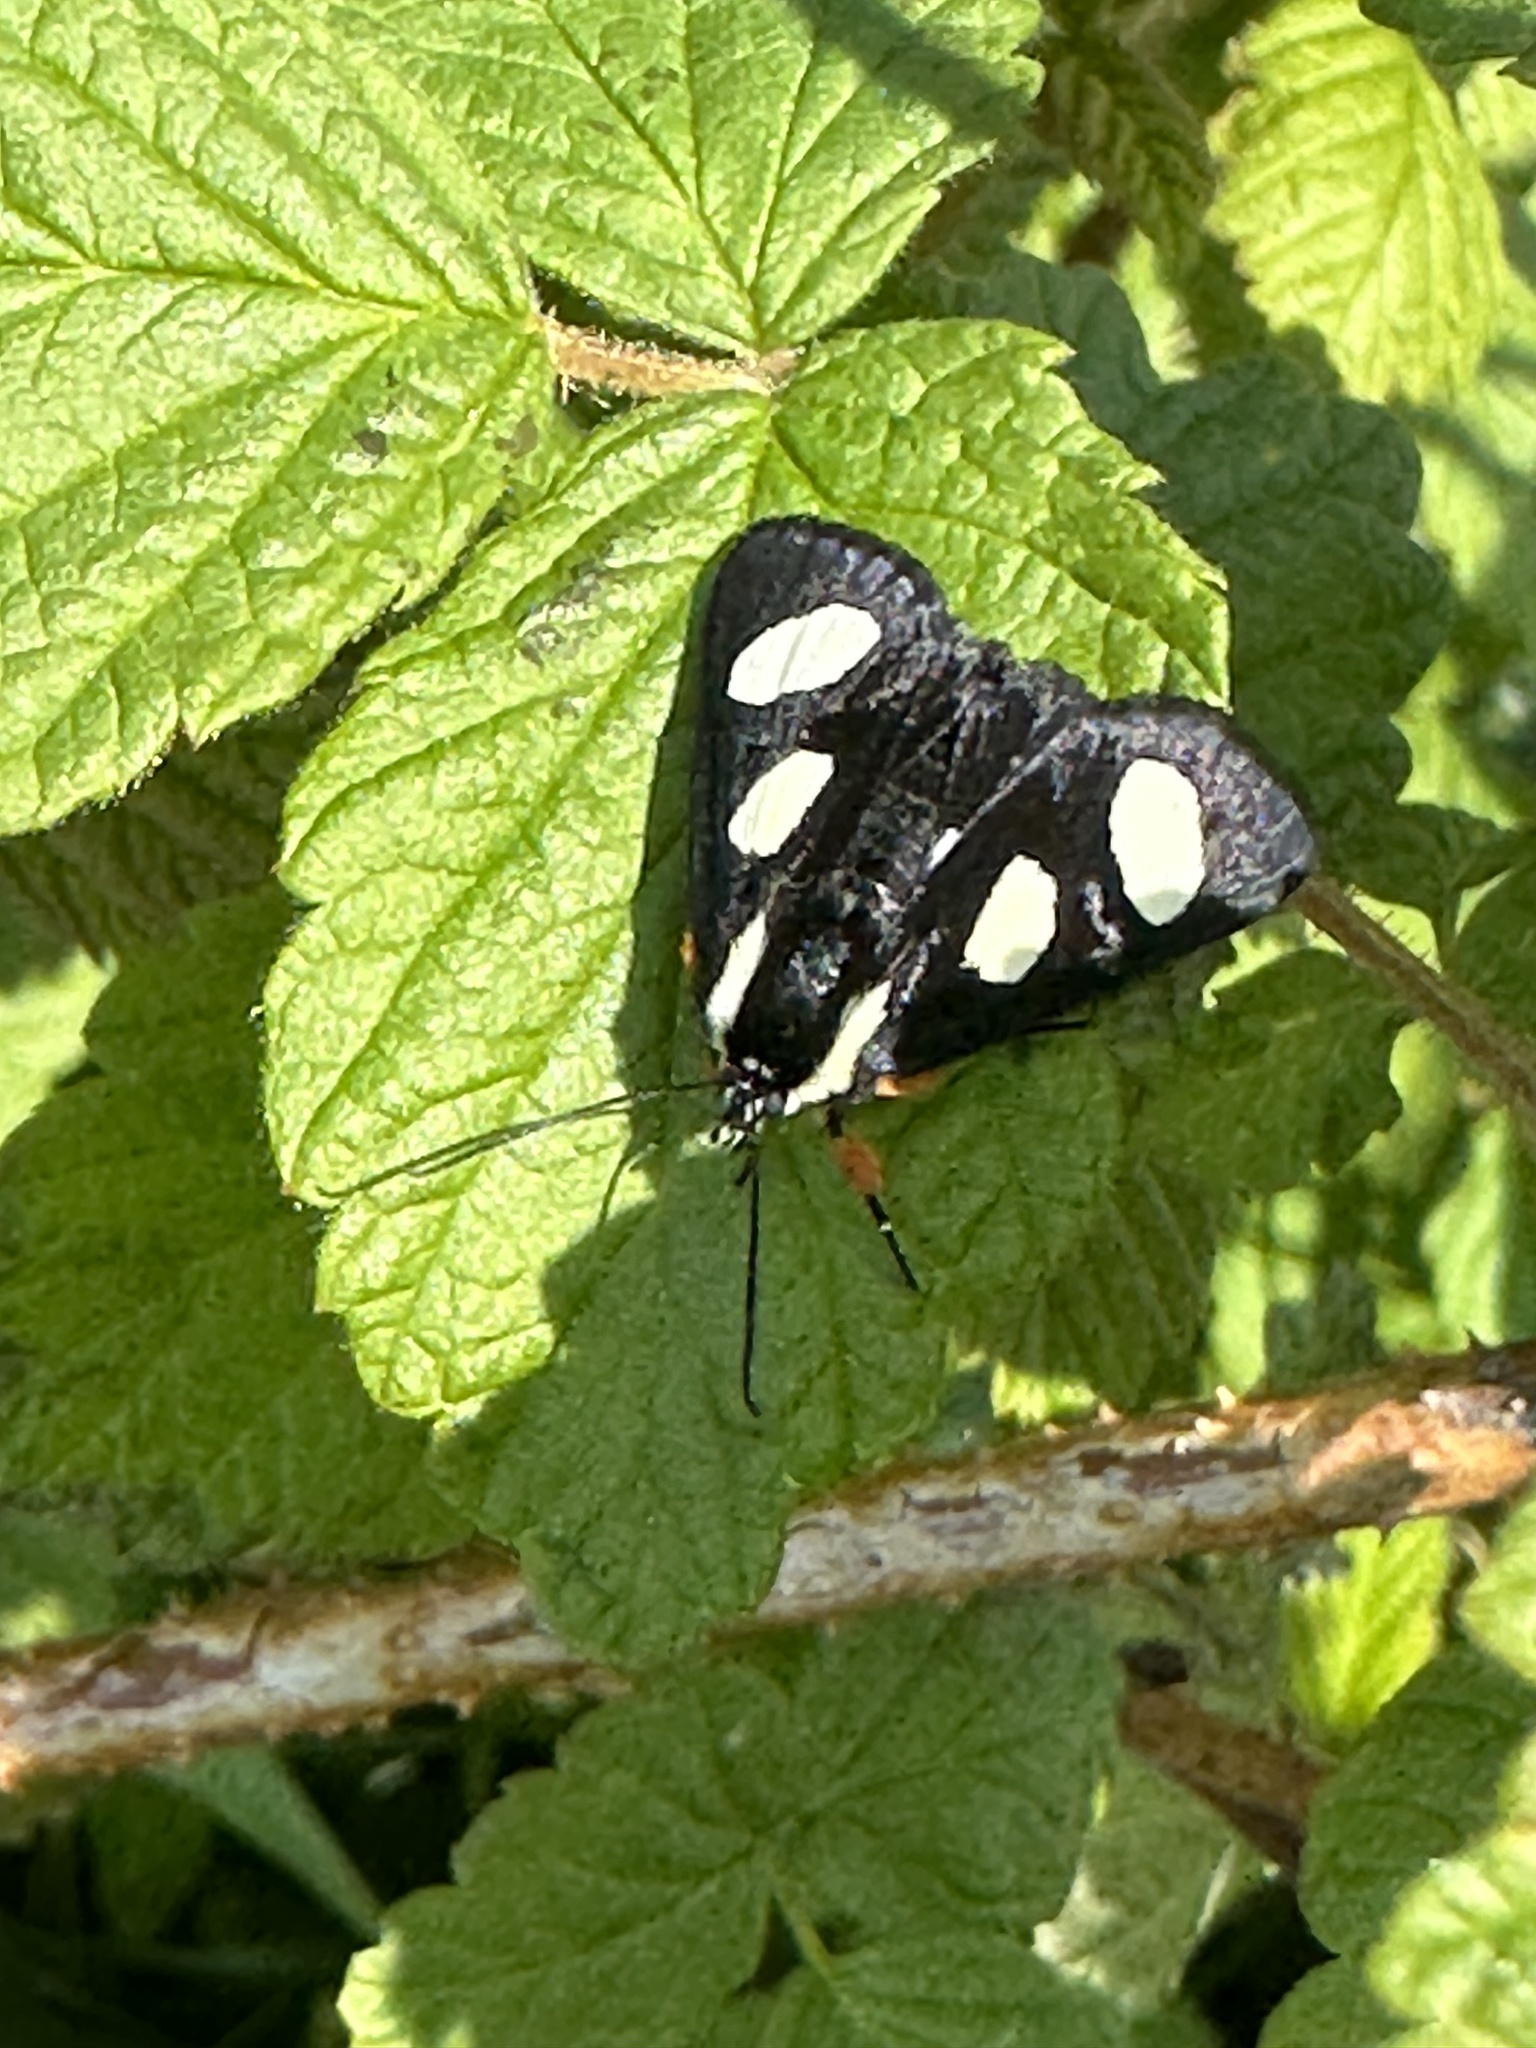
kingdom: Animalia
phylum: Arthropoda
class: Insecta
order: Lepidoptera
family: Noctuidae
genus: Alypia
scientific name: Alypia octomaculata
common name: Eight-spotted forester
